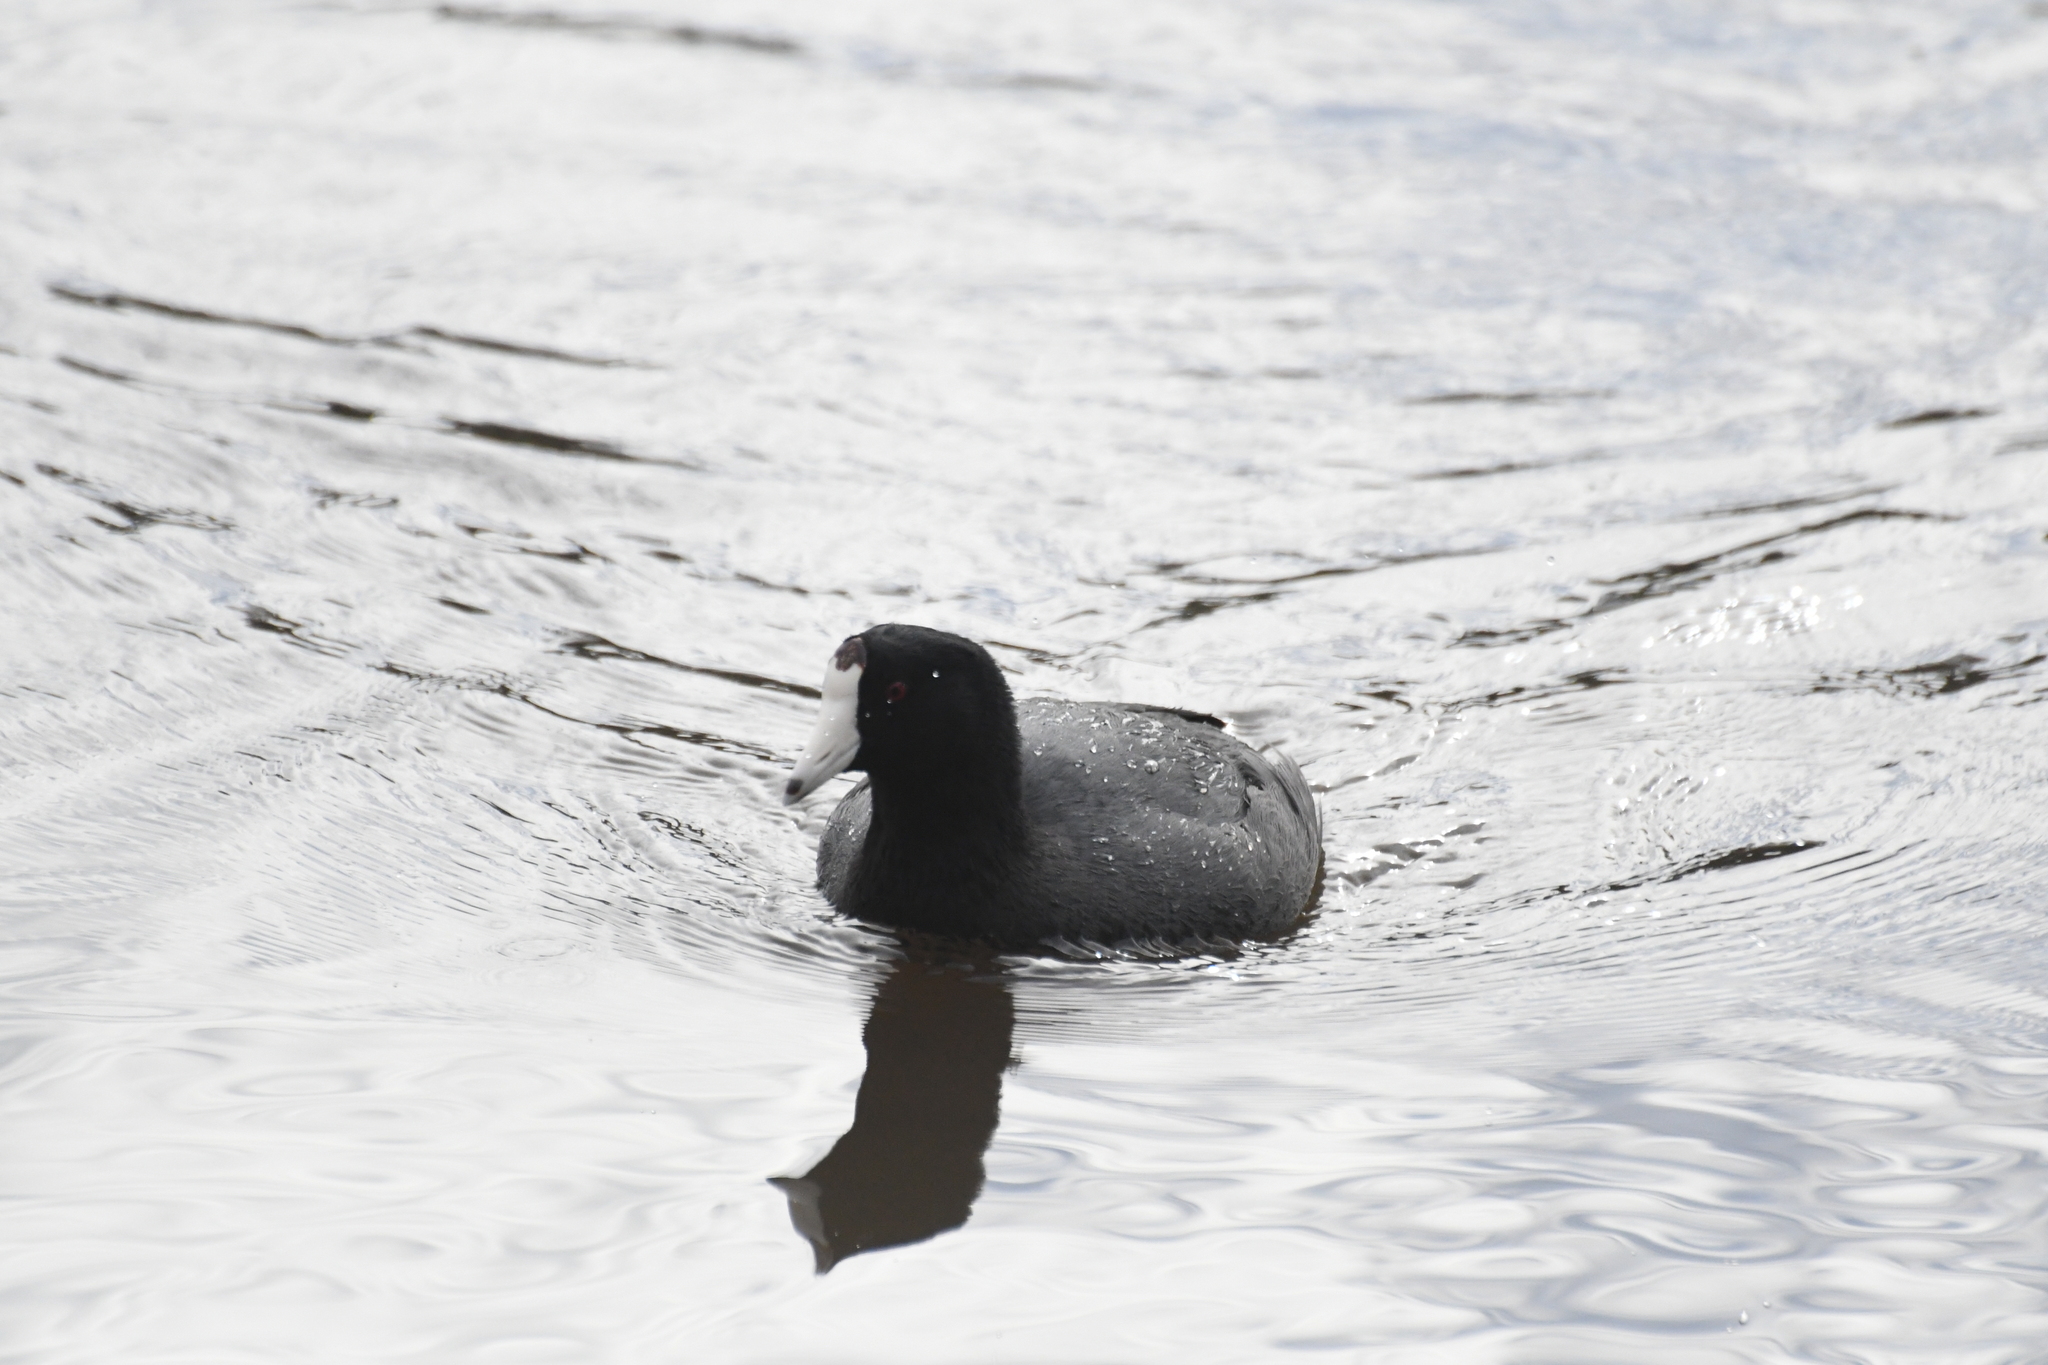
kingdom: Animalia
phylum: Chordata
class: Aves
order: Gruiformes
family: Rallidae
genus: Fulica
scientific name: Fulica americana
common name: American coot
